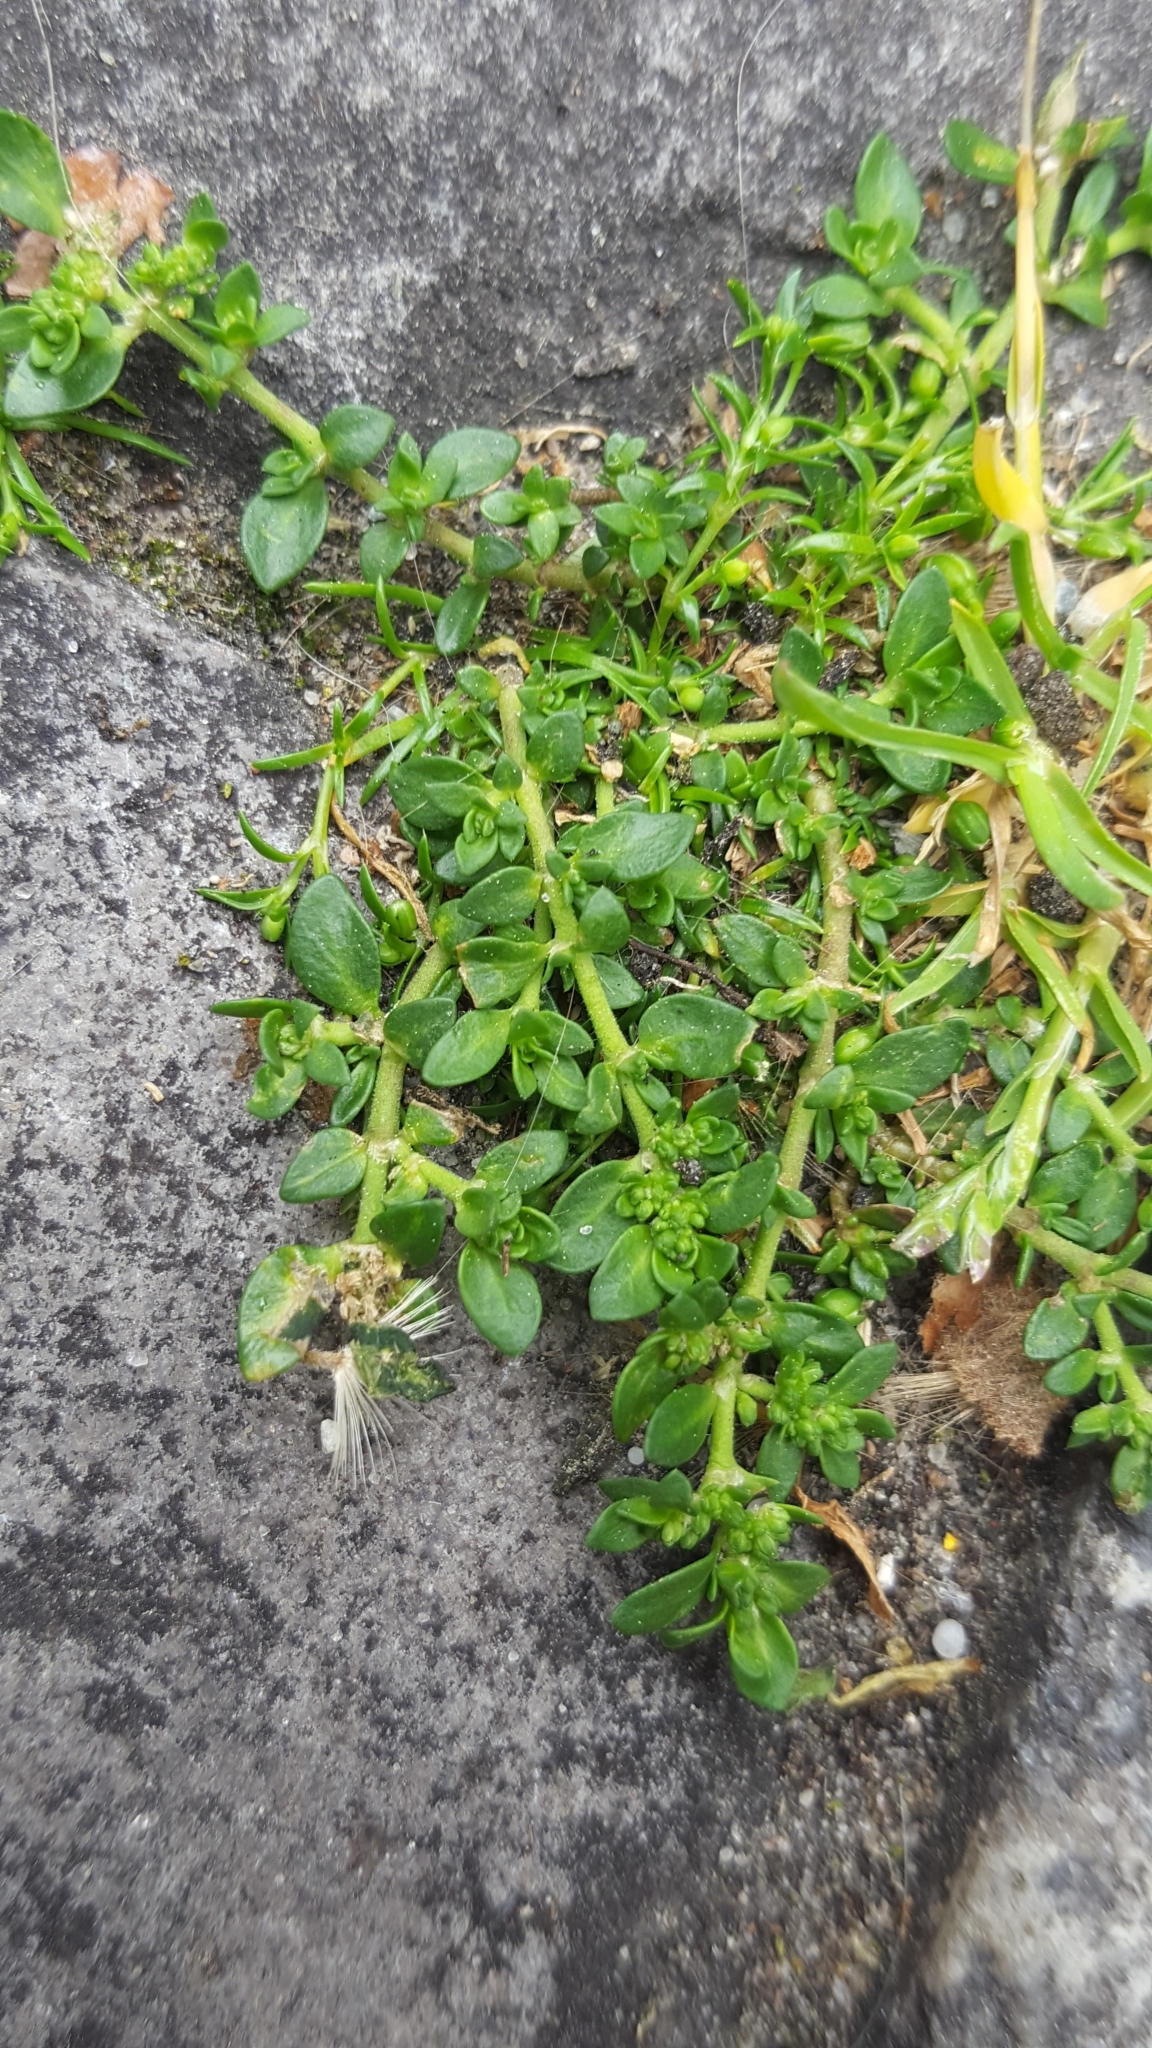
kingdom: Plantae
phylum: Tracheophyta
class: Magnoliopsida
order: Caryophyllales
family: Caryophyllaceae
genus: Herniaria
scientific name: Herniaria glabra
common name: Smooth rupturewort
